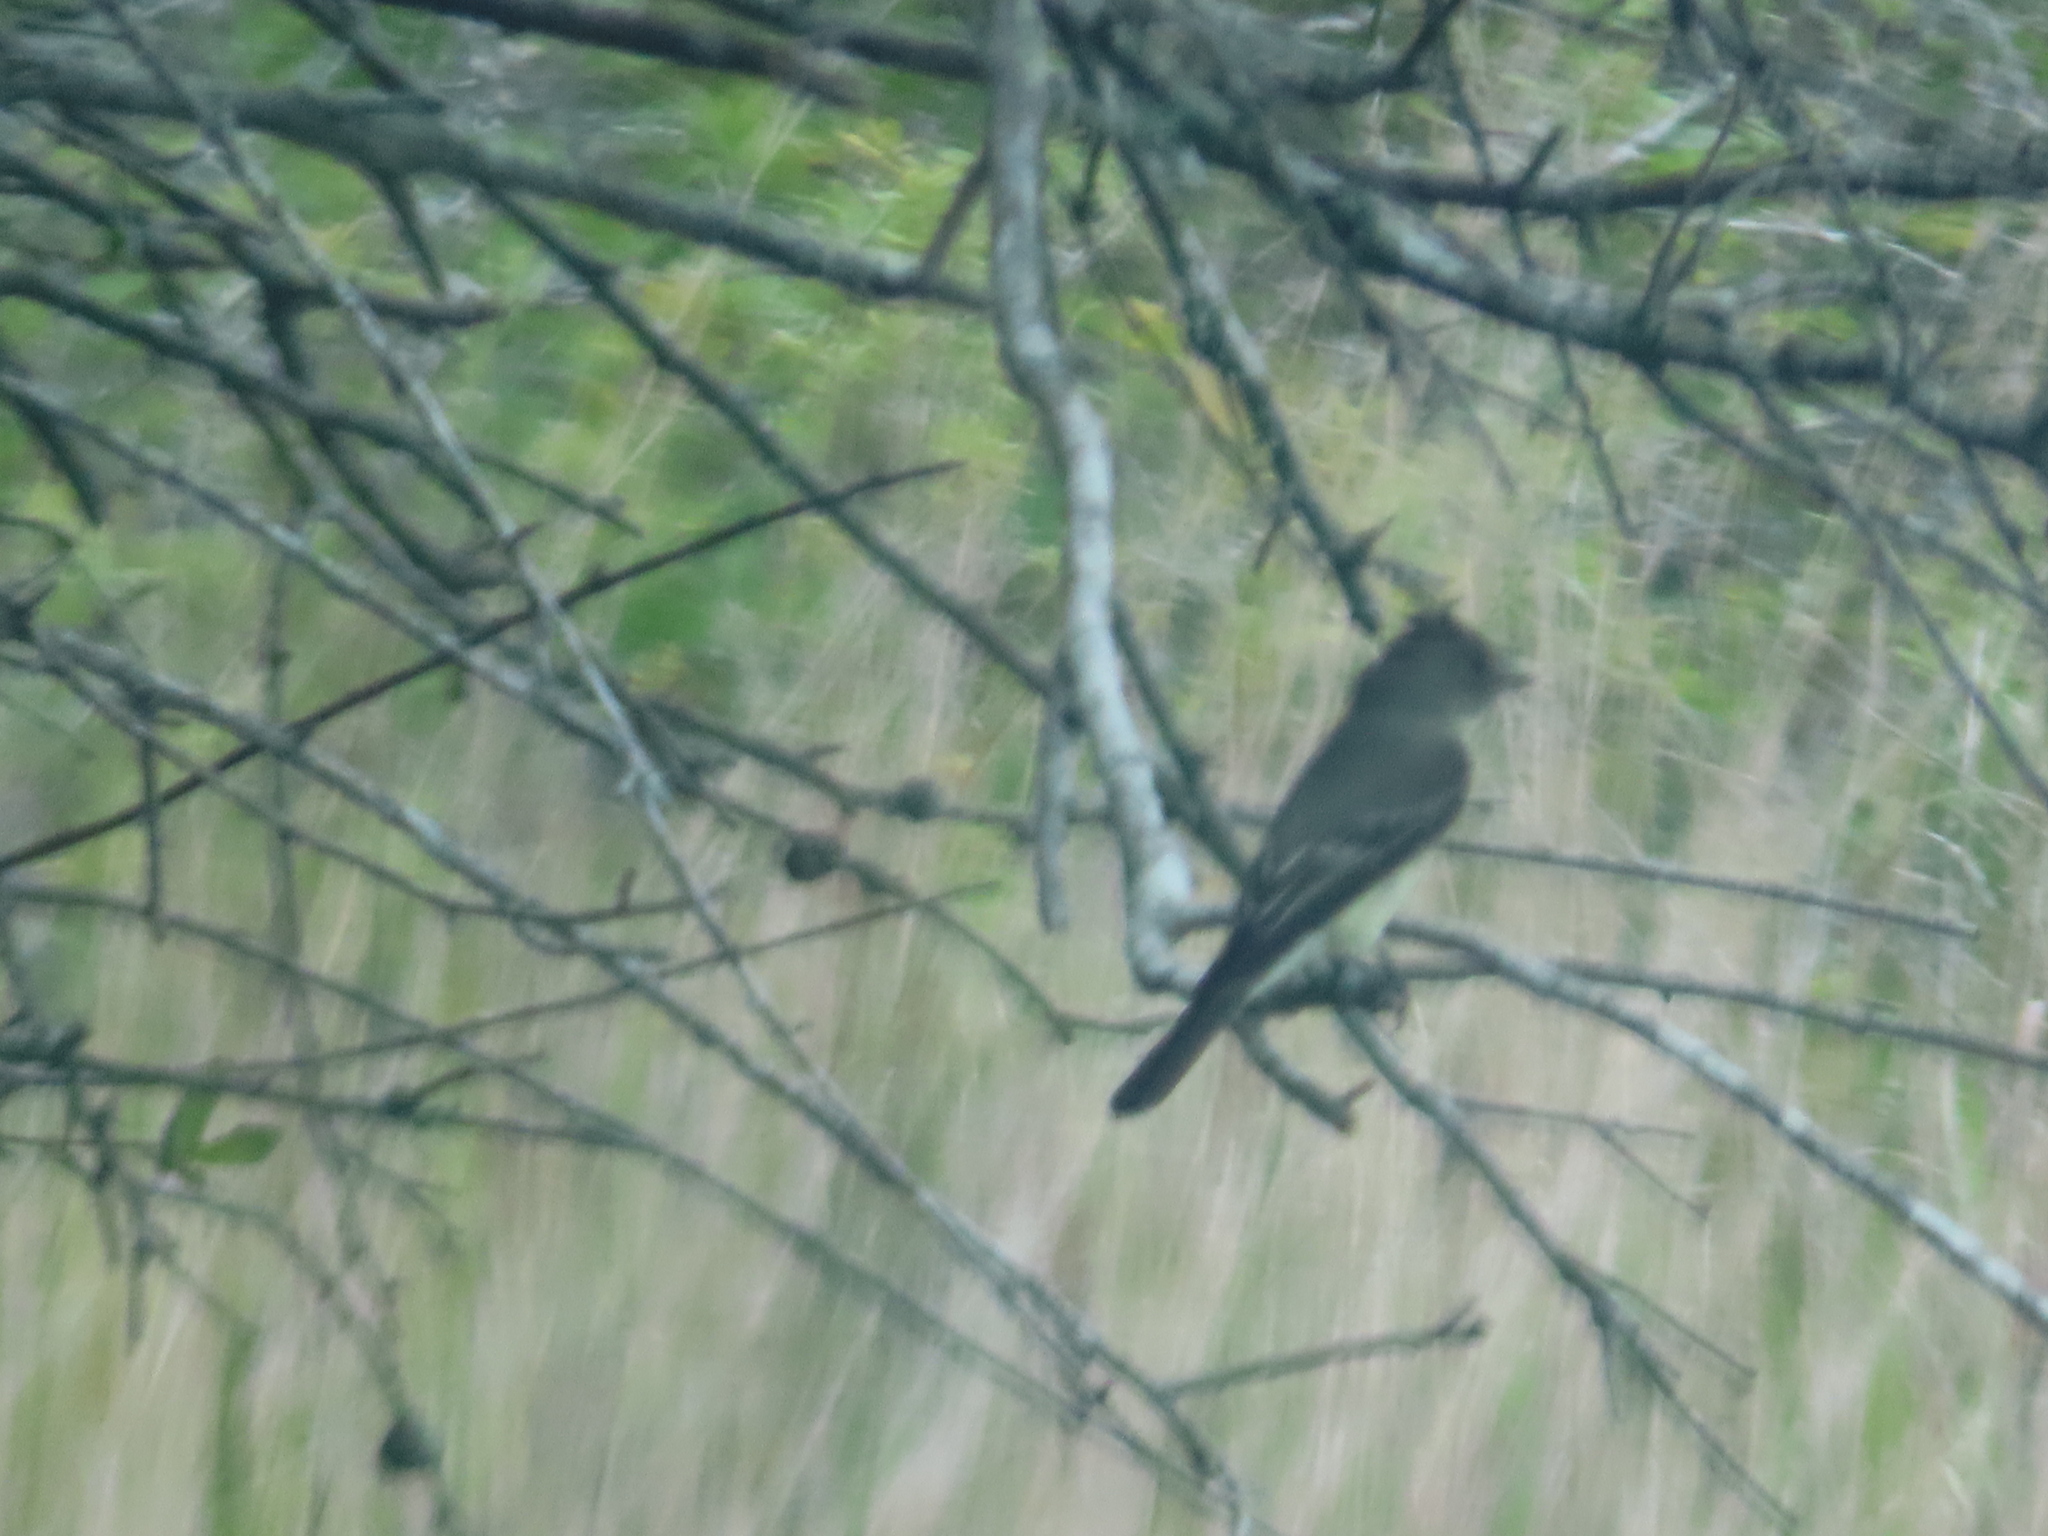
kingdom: Animalia
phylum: Chordata
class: Aves
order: Passeriformes
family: Tyrannidae
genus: Contopus
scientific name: Contopus virens
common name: Eastern wood-pewee
